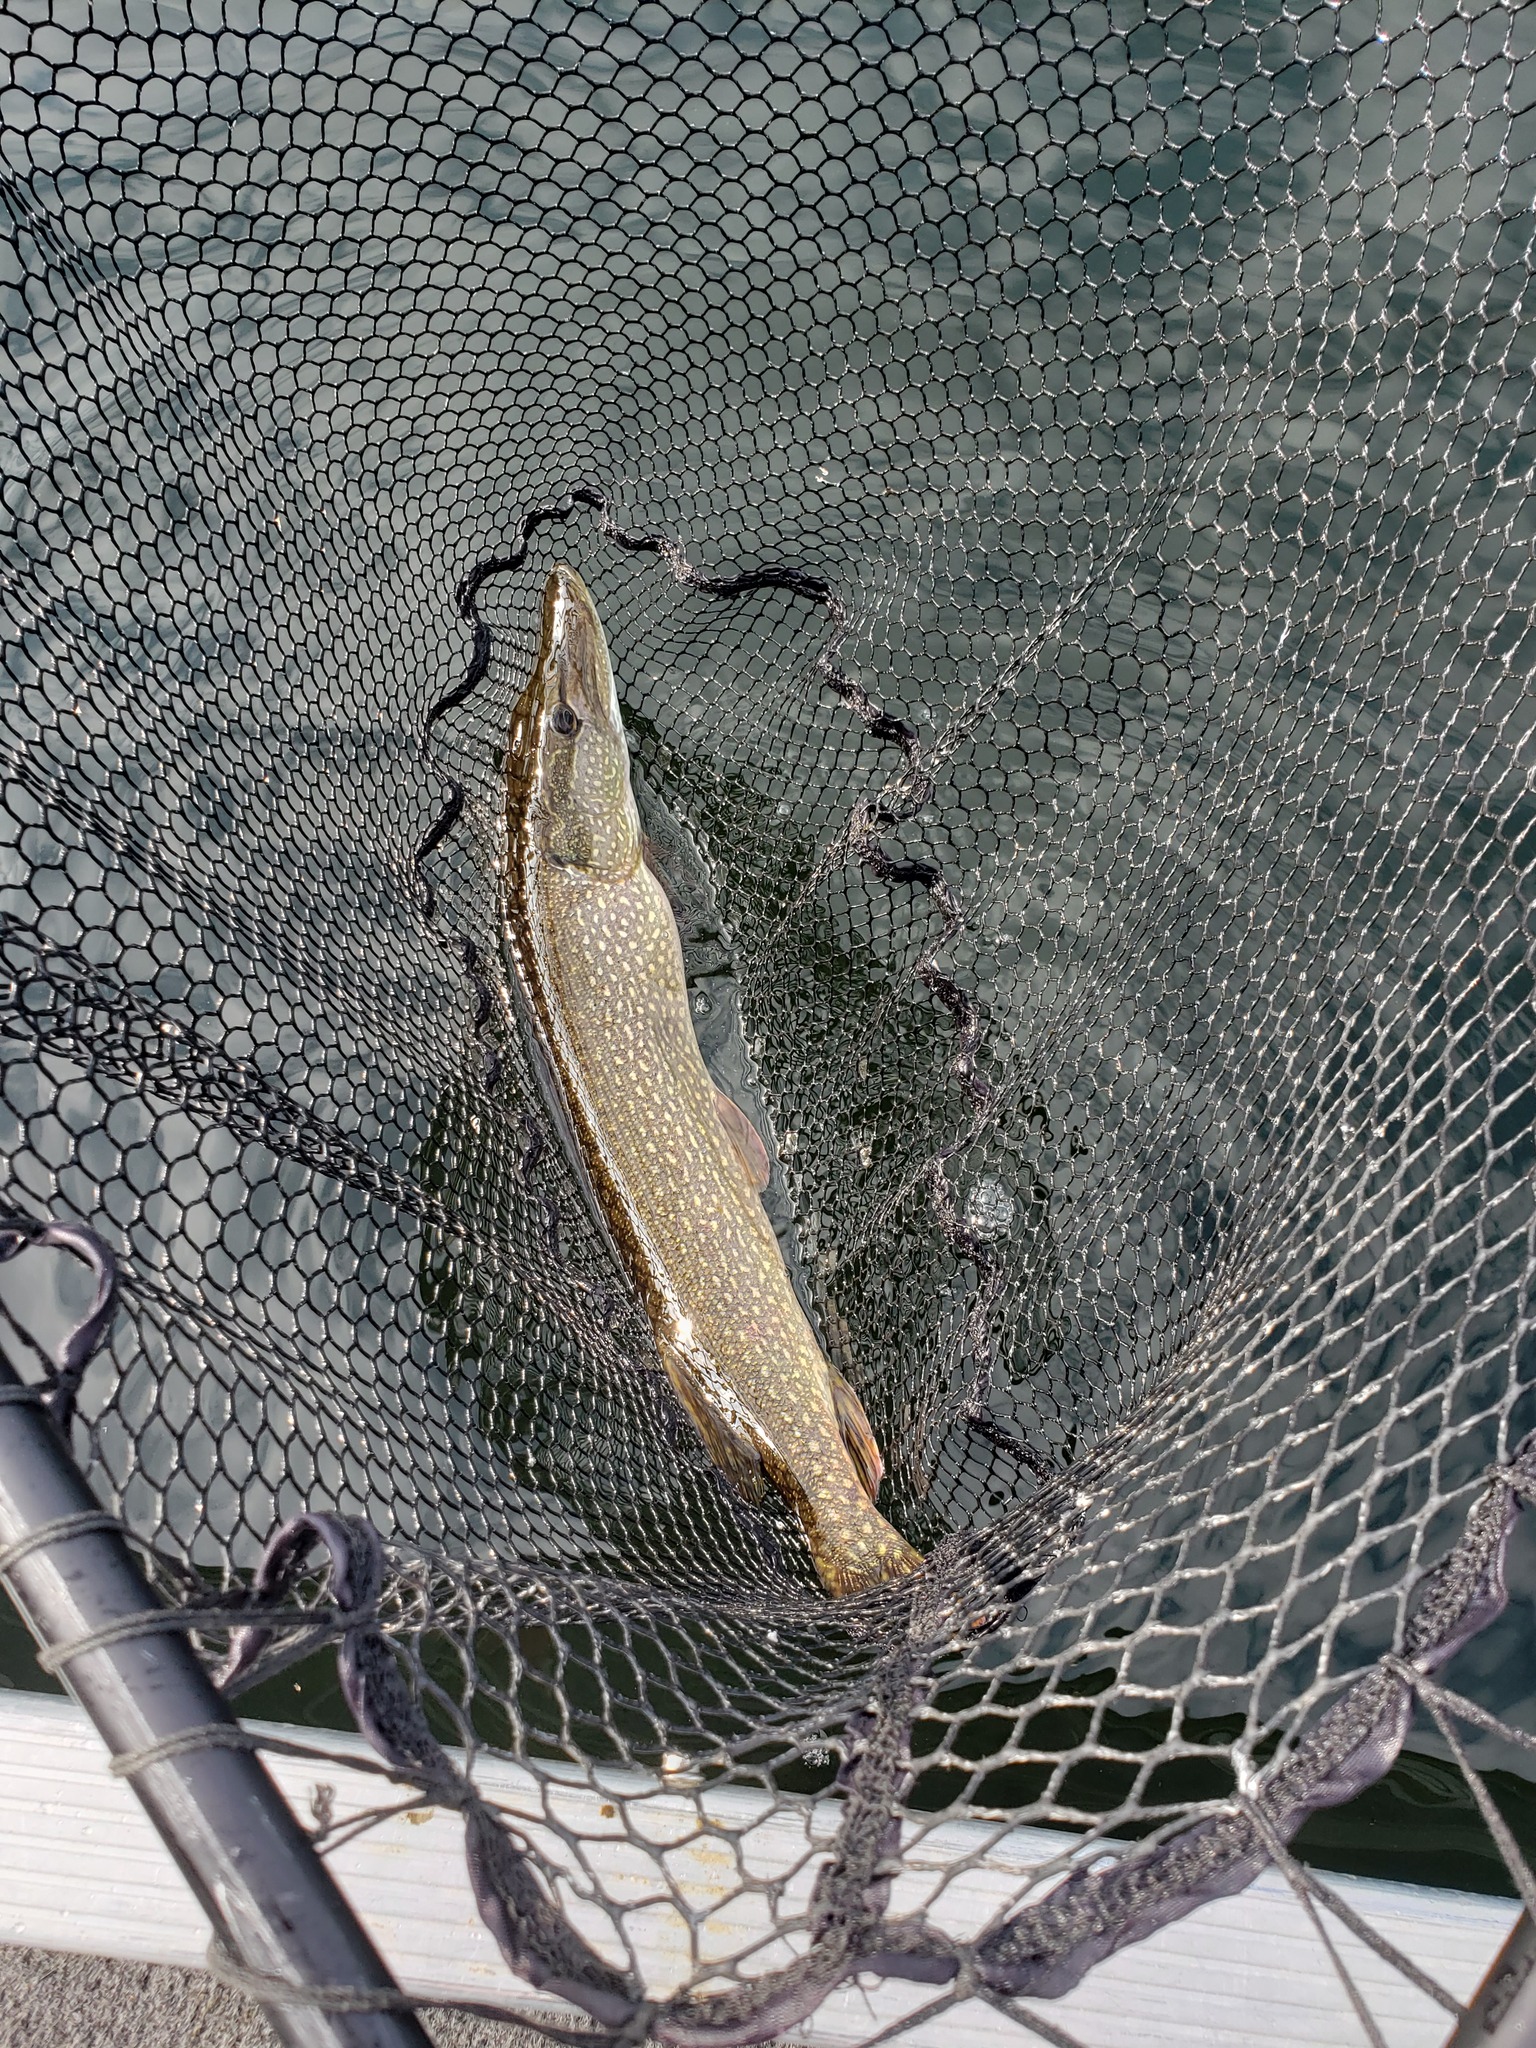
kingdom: Animalia
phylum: Chordata
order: Esociformes
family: Esocidae
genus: Esox
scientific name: Esox lucius
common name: Northern pike
